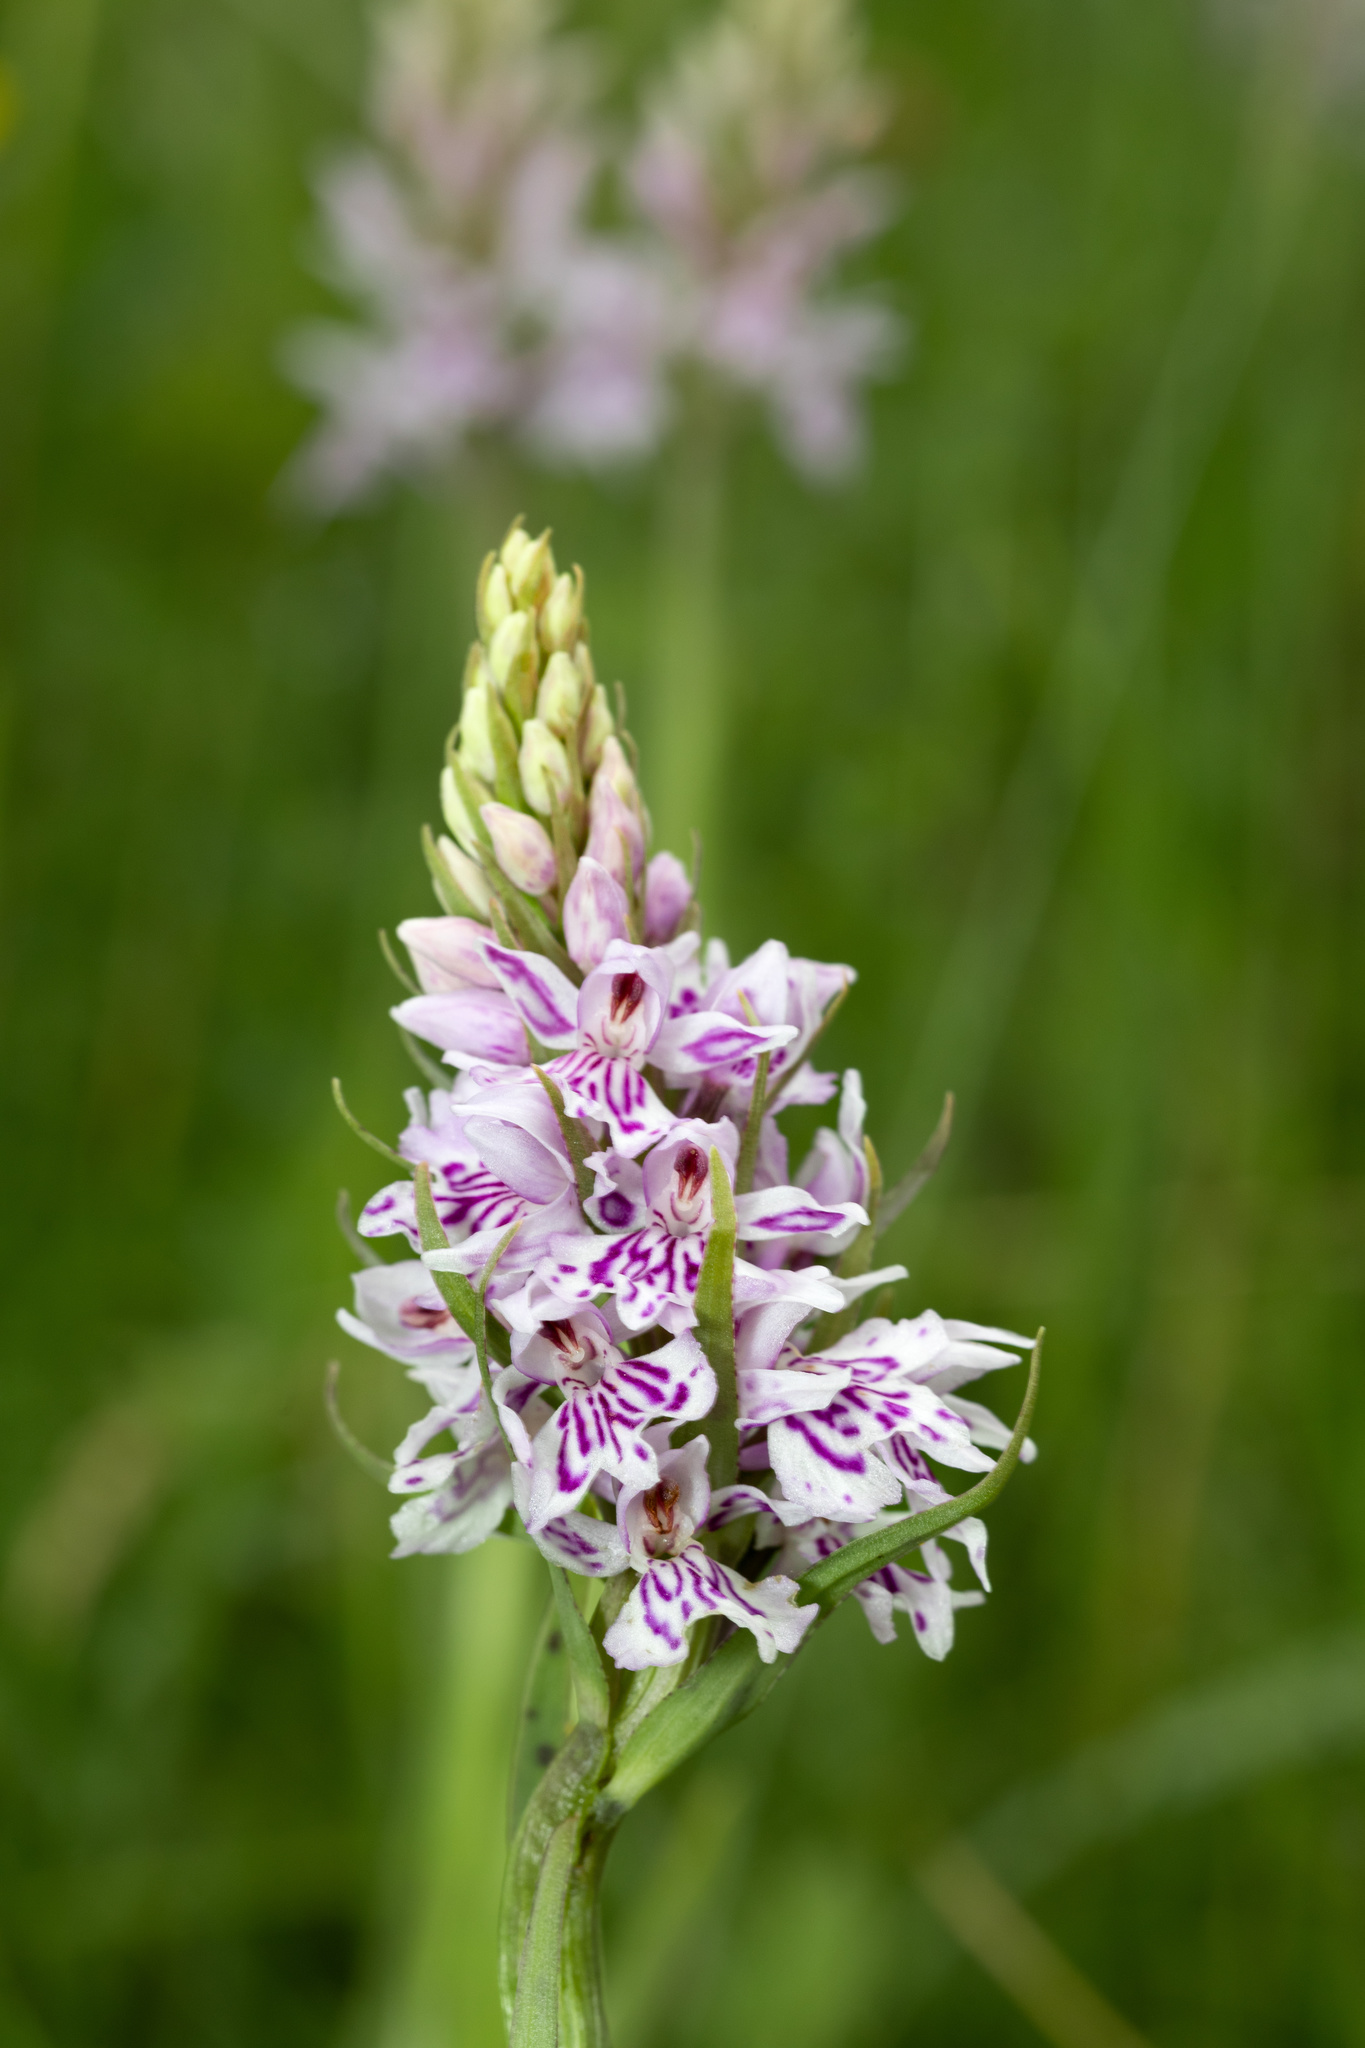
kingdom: Plantae
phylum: Tracheophyta
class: Liliopsida
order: Asparagales
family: Orchidaceae
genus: Dactylorhiza
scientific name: Dactylorhiza maculata
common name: Heath spotted-orchid
